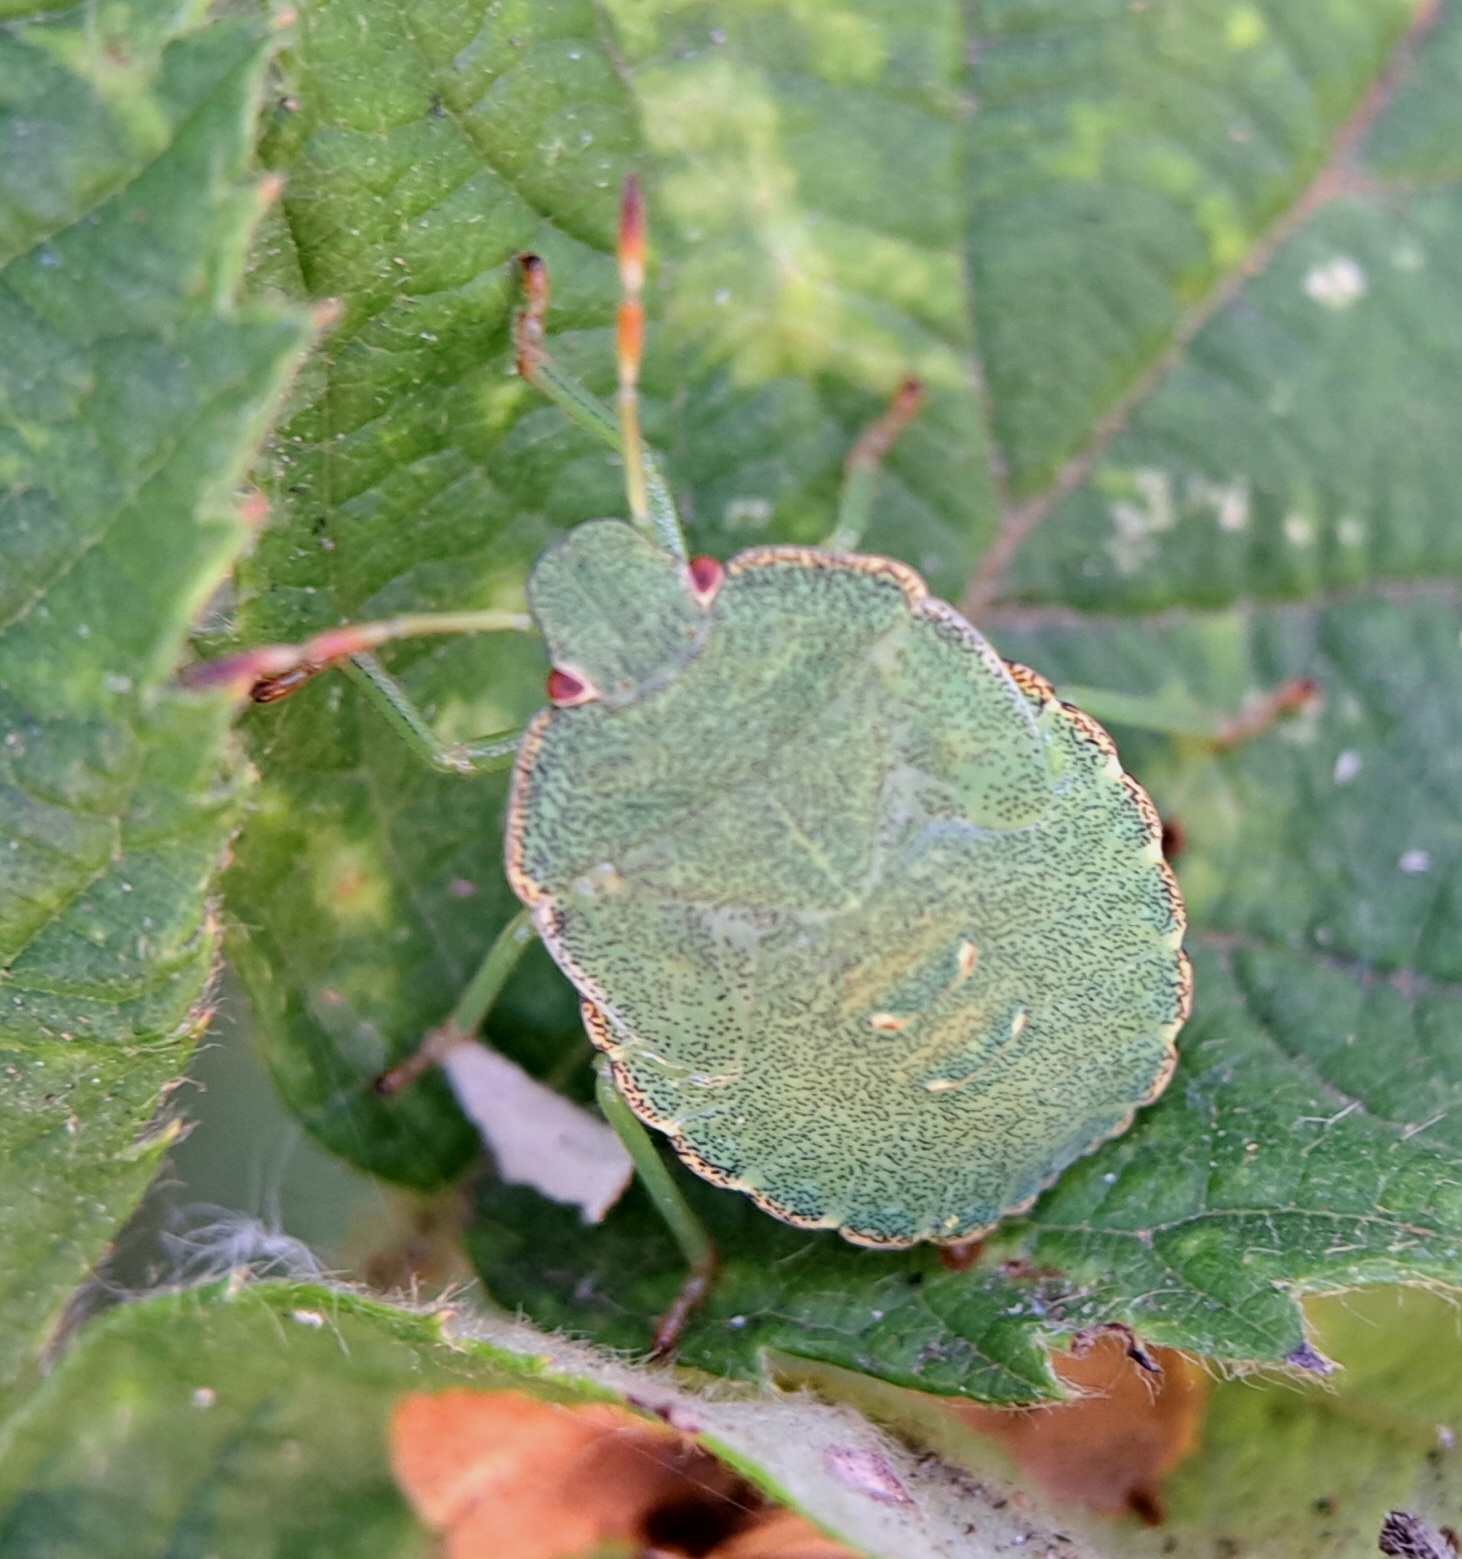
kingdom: Animalia
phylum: Arthropoda
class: Insecta
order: Hemiptera
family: Pentatomidae
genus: Palomena
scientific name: Palomena prasina
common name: Green shieldbug
